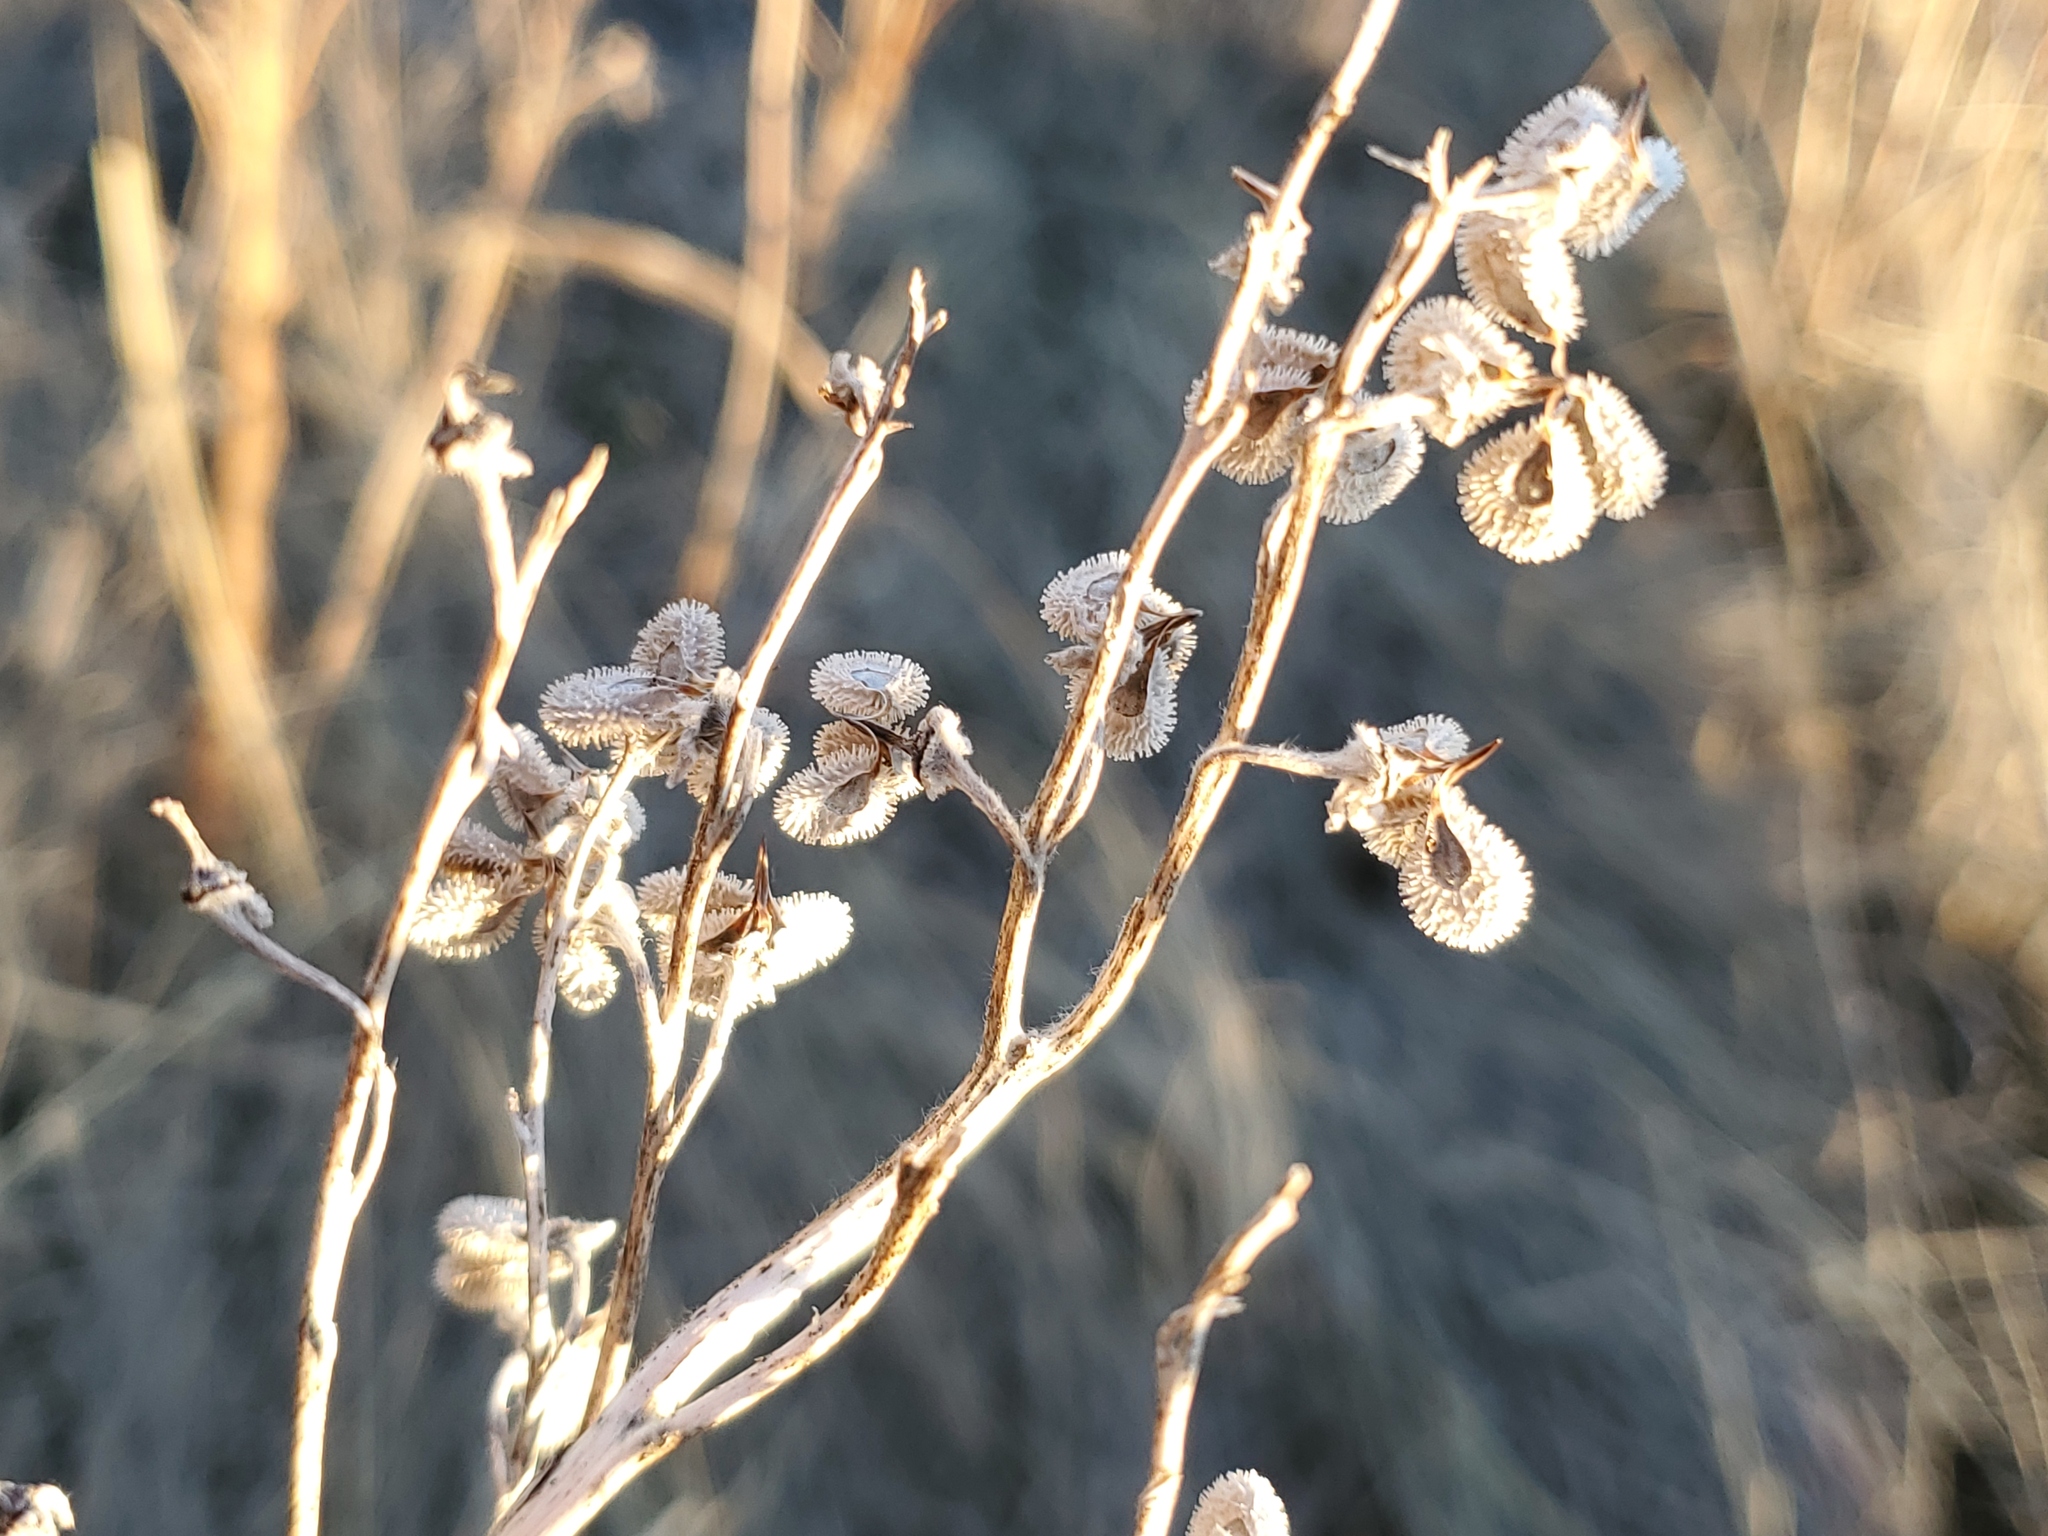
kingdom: Plantae
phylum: Tracheophyta
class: Magnoliopsida
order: Boraginales
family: Boraginaceae
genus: Cynoglossum
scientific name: Cynoglossum officinale
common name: Hound's-tongue
